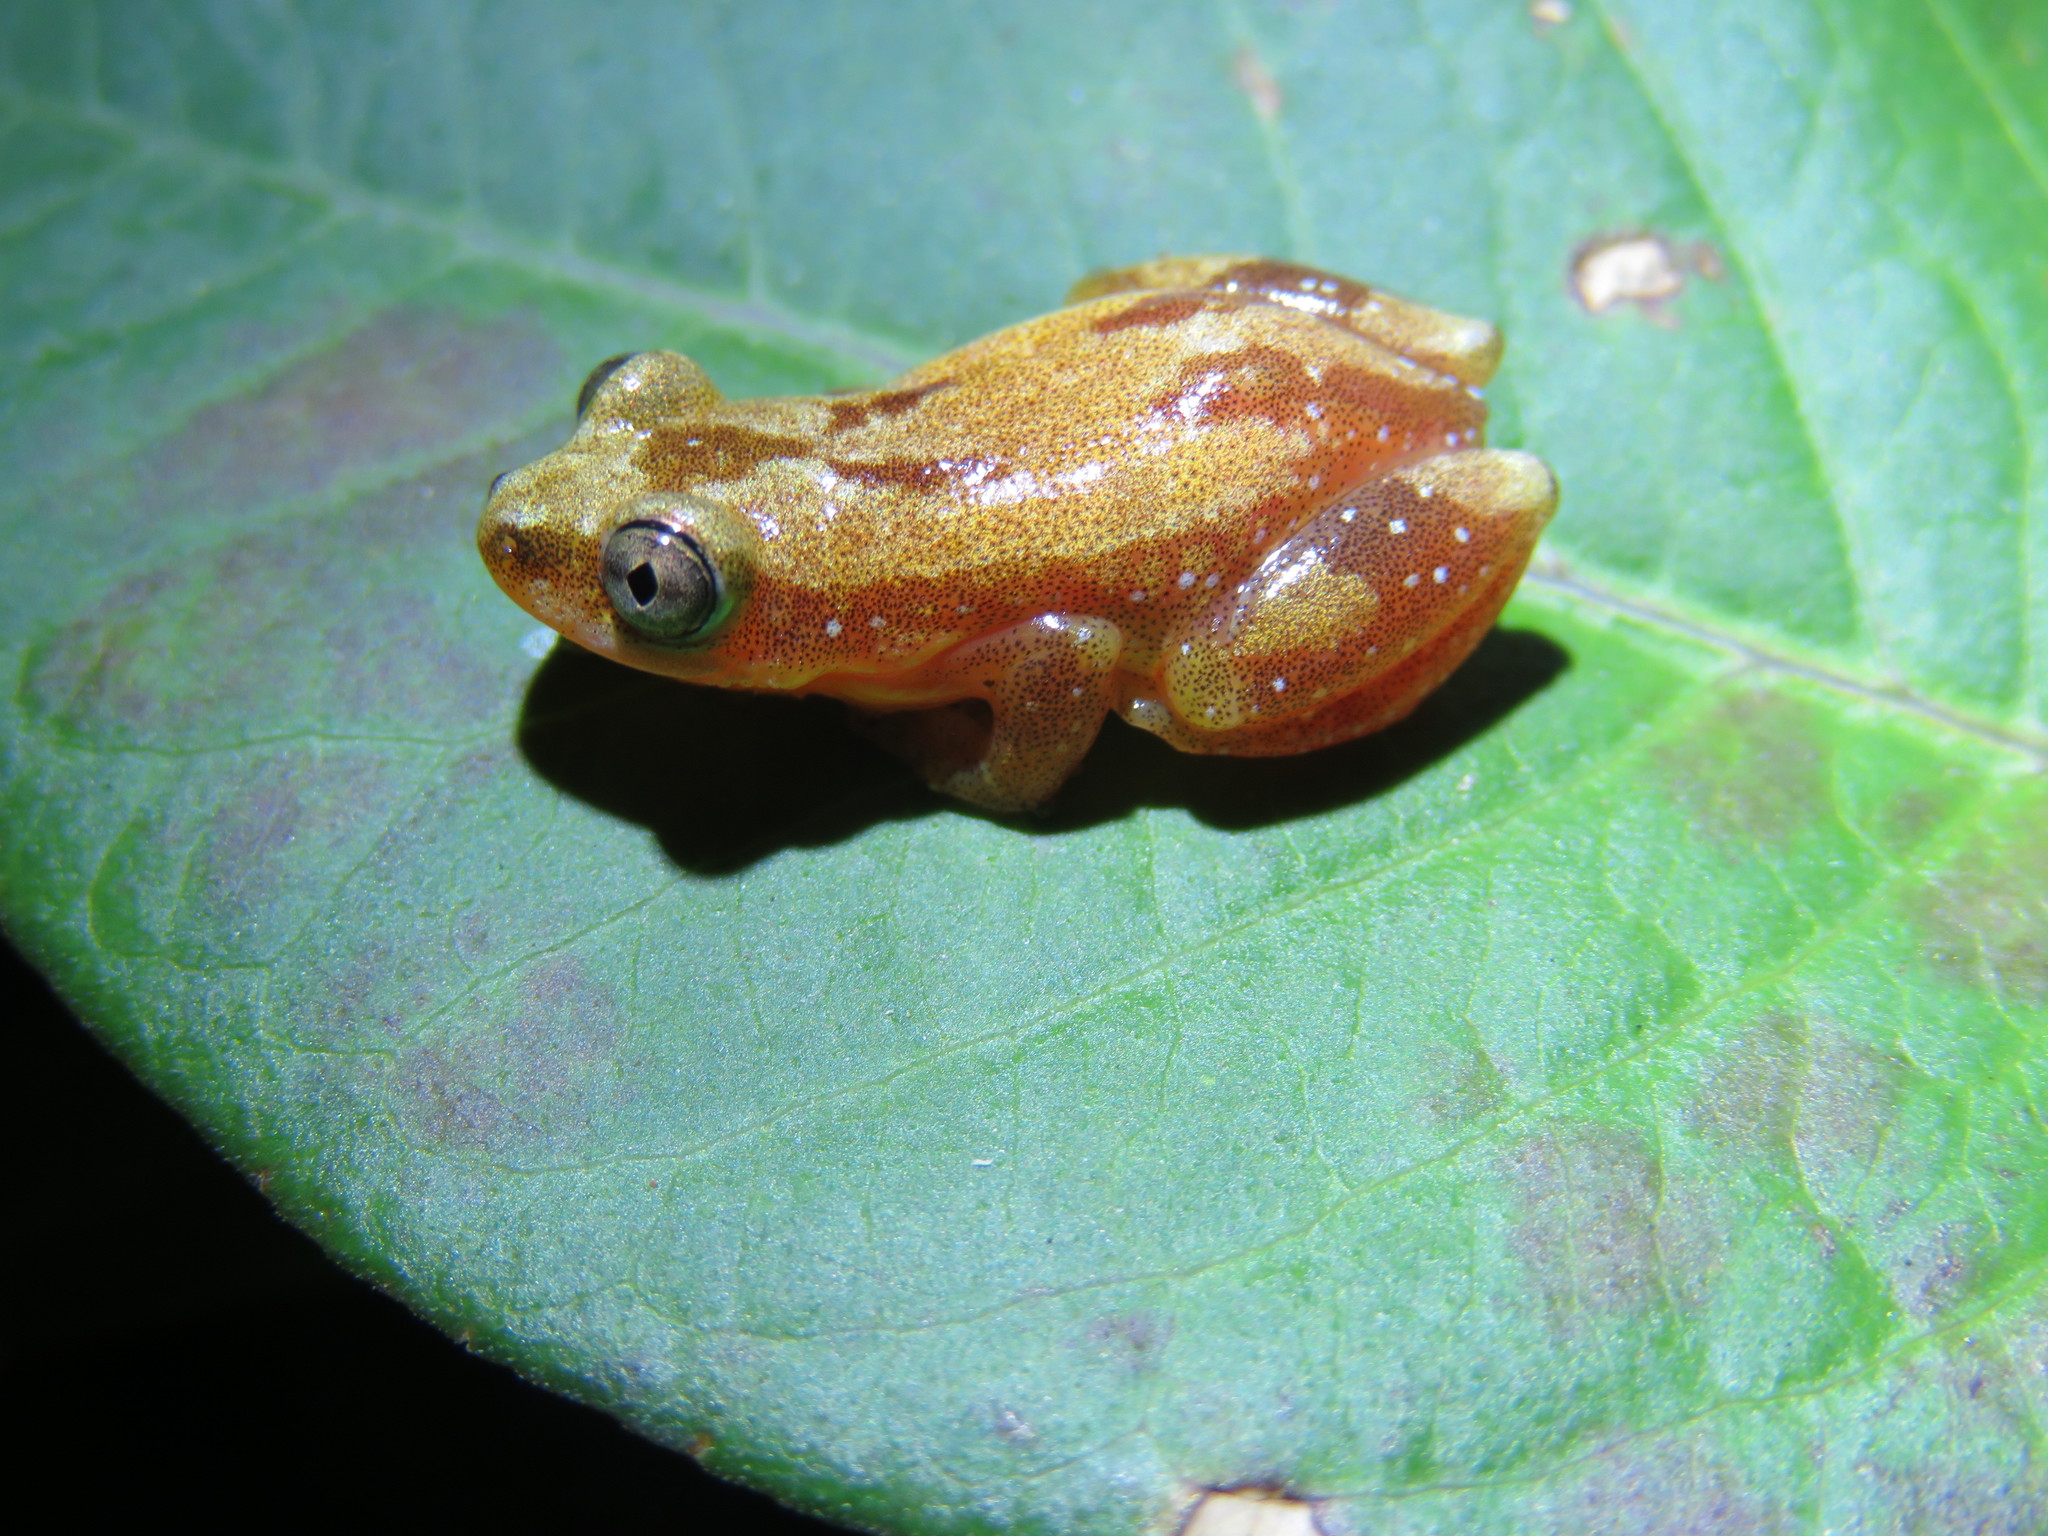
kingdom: Animalia
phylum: Chordata
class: Amphibia
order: Anura
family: Hyperoliidae
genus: Afrixalus
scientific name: Afrixalus delicatus
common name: Delicate leaf-folding frog
